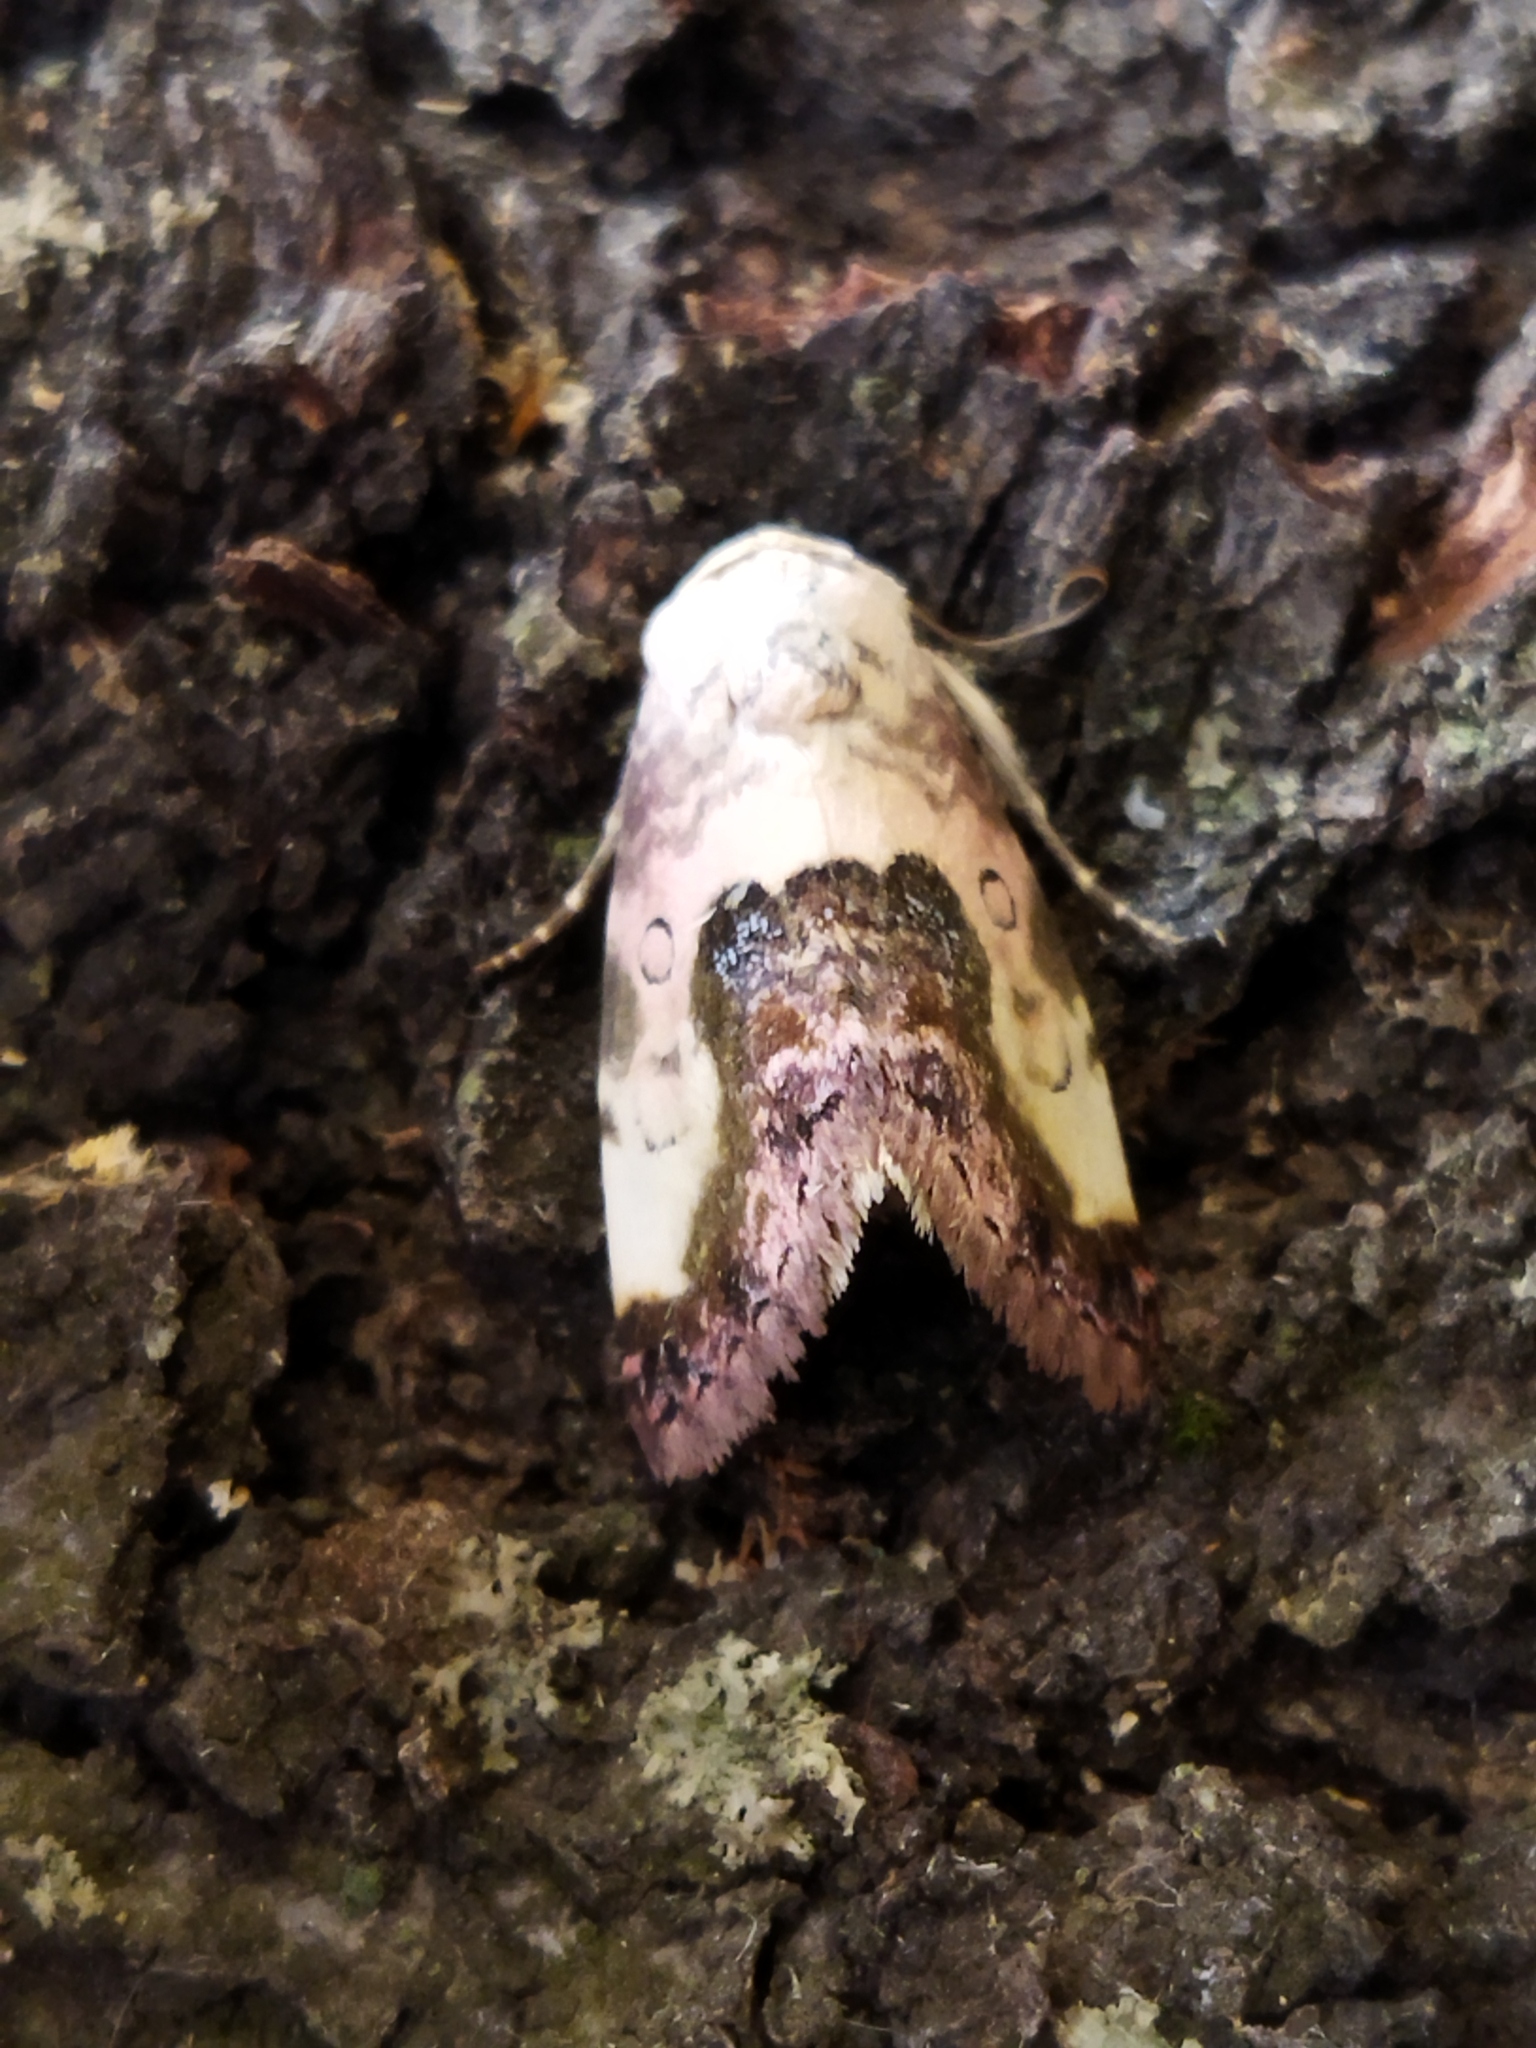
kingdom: Animalia
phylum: Arthropoda
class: Insecta
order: Lepidoptera
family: Noctuidae
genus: Acontia
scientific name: Acontia titania
